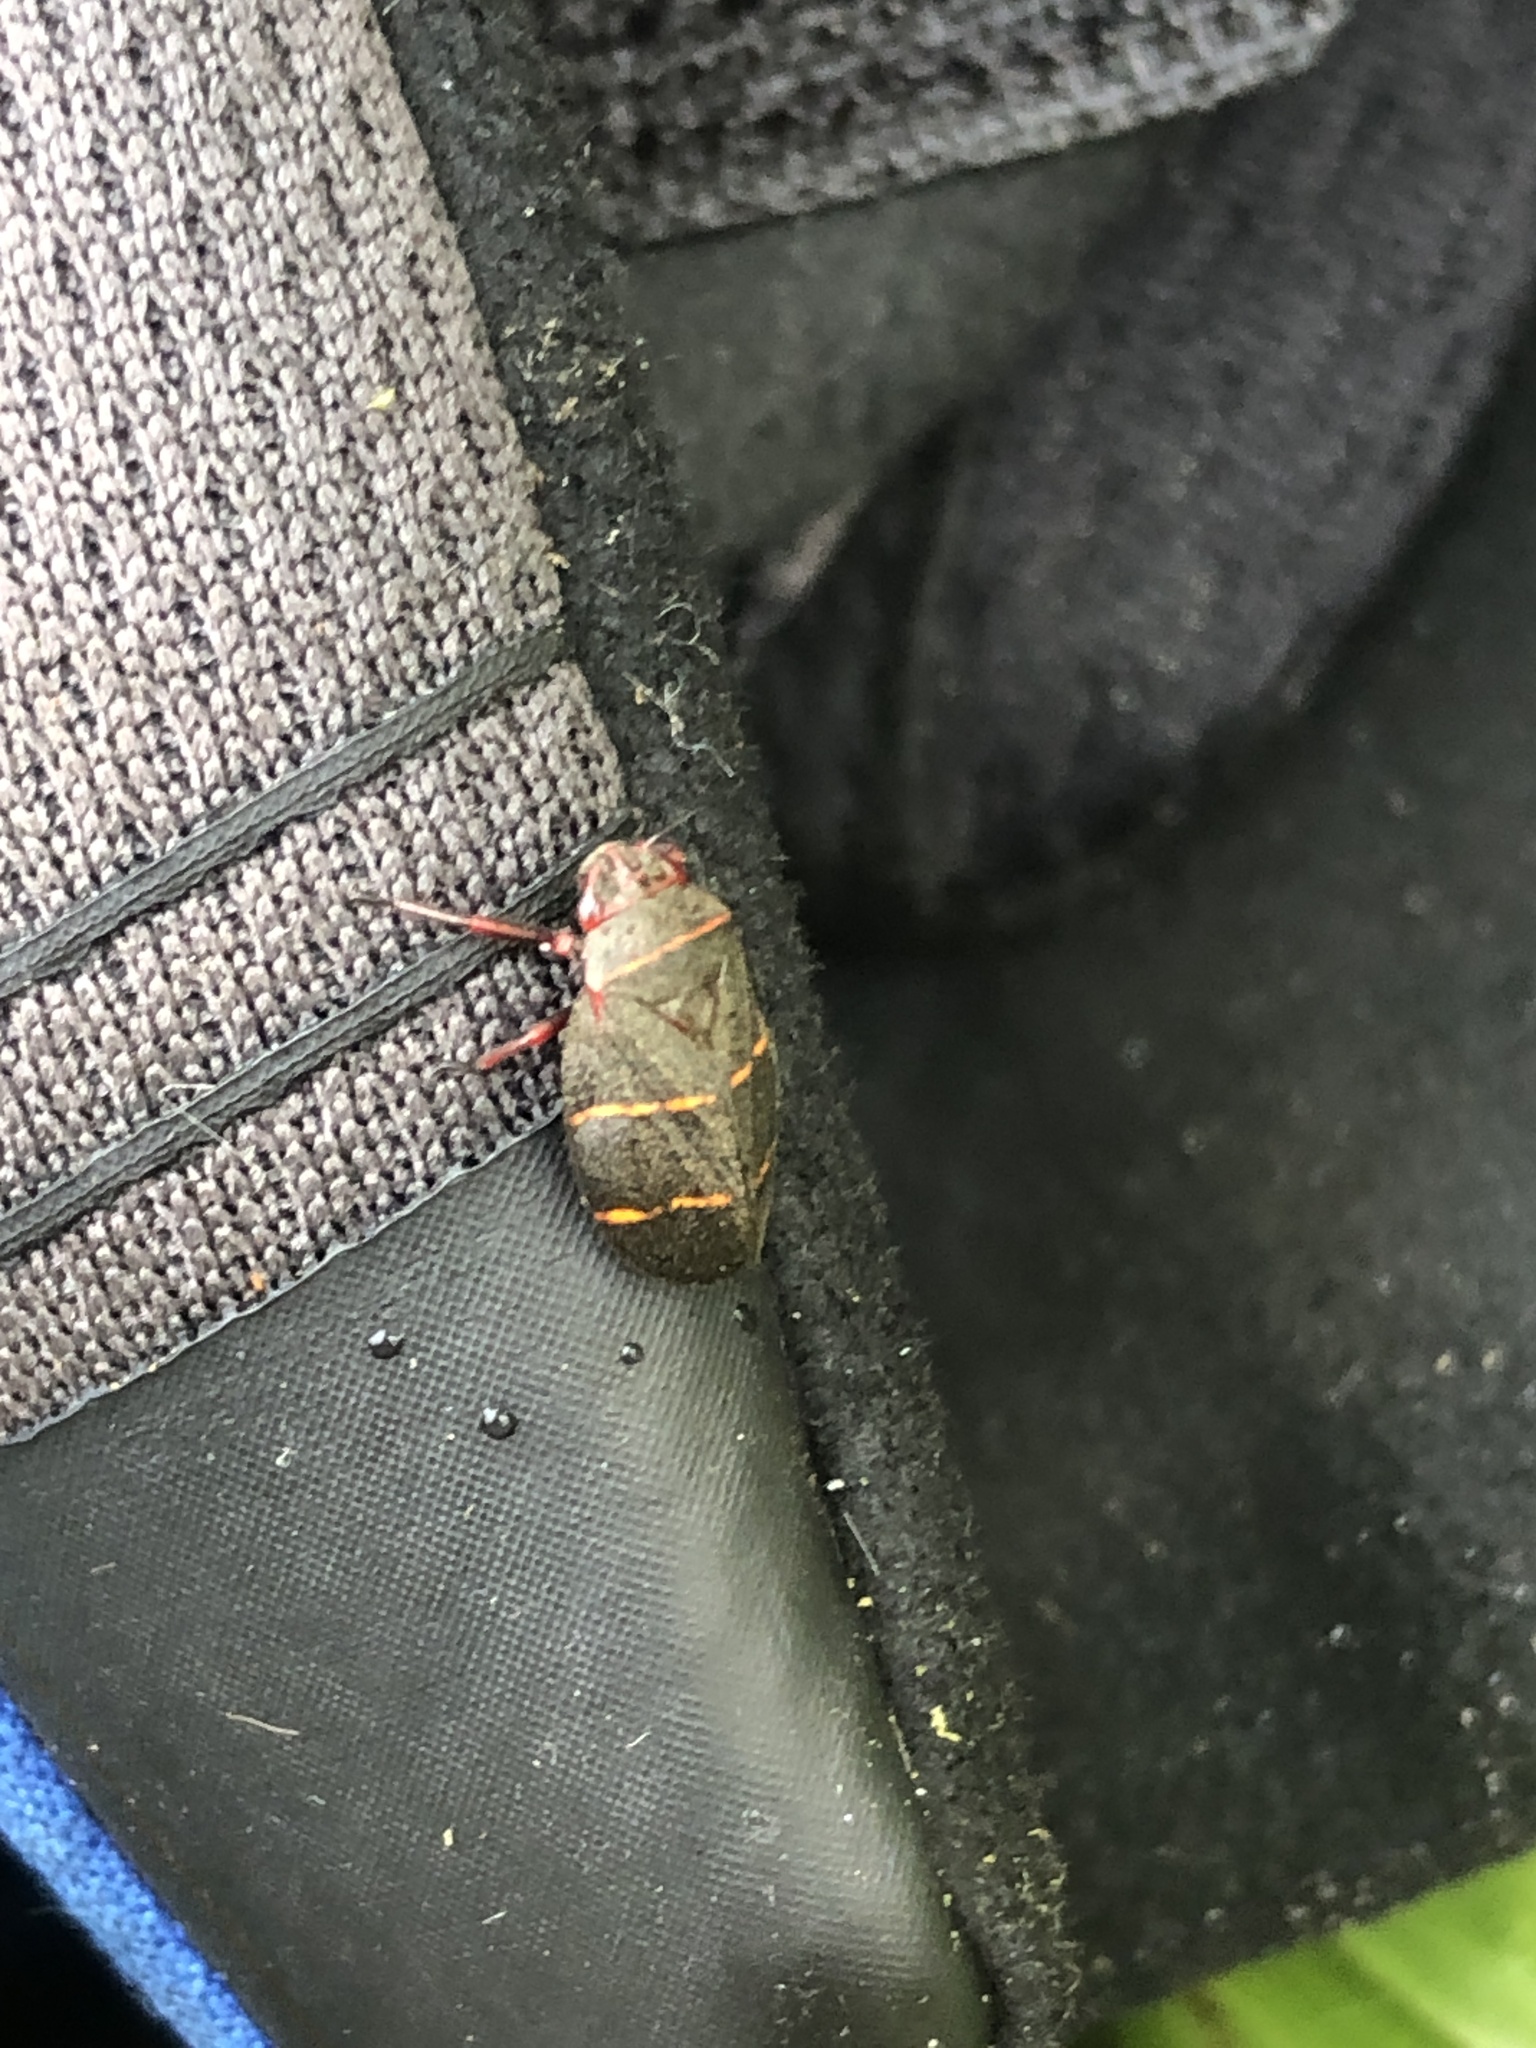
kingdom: Animalia
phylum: Arthropoda
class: Insecta
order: Hemiptera
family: Cercopidae
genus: Prosapia
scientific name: Prosapia bicincta
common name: Twolined spittlebug
